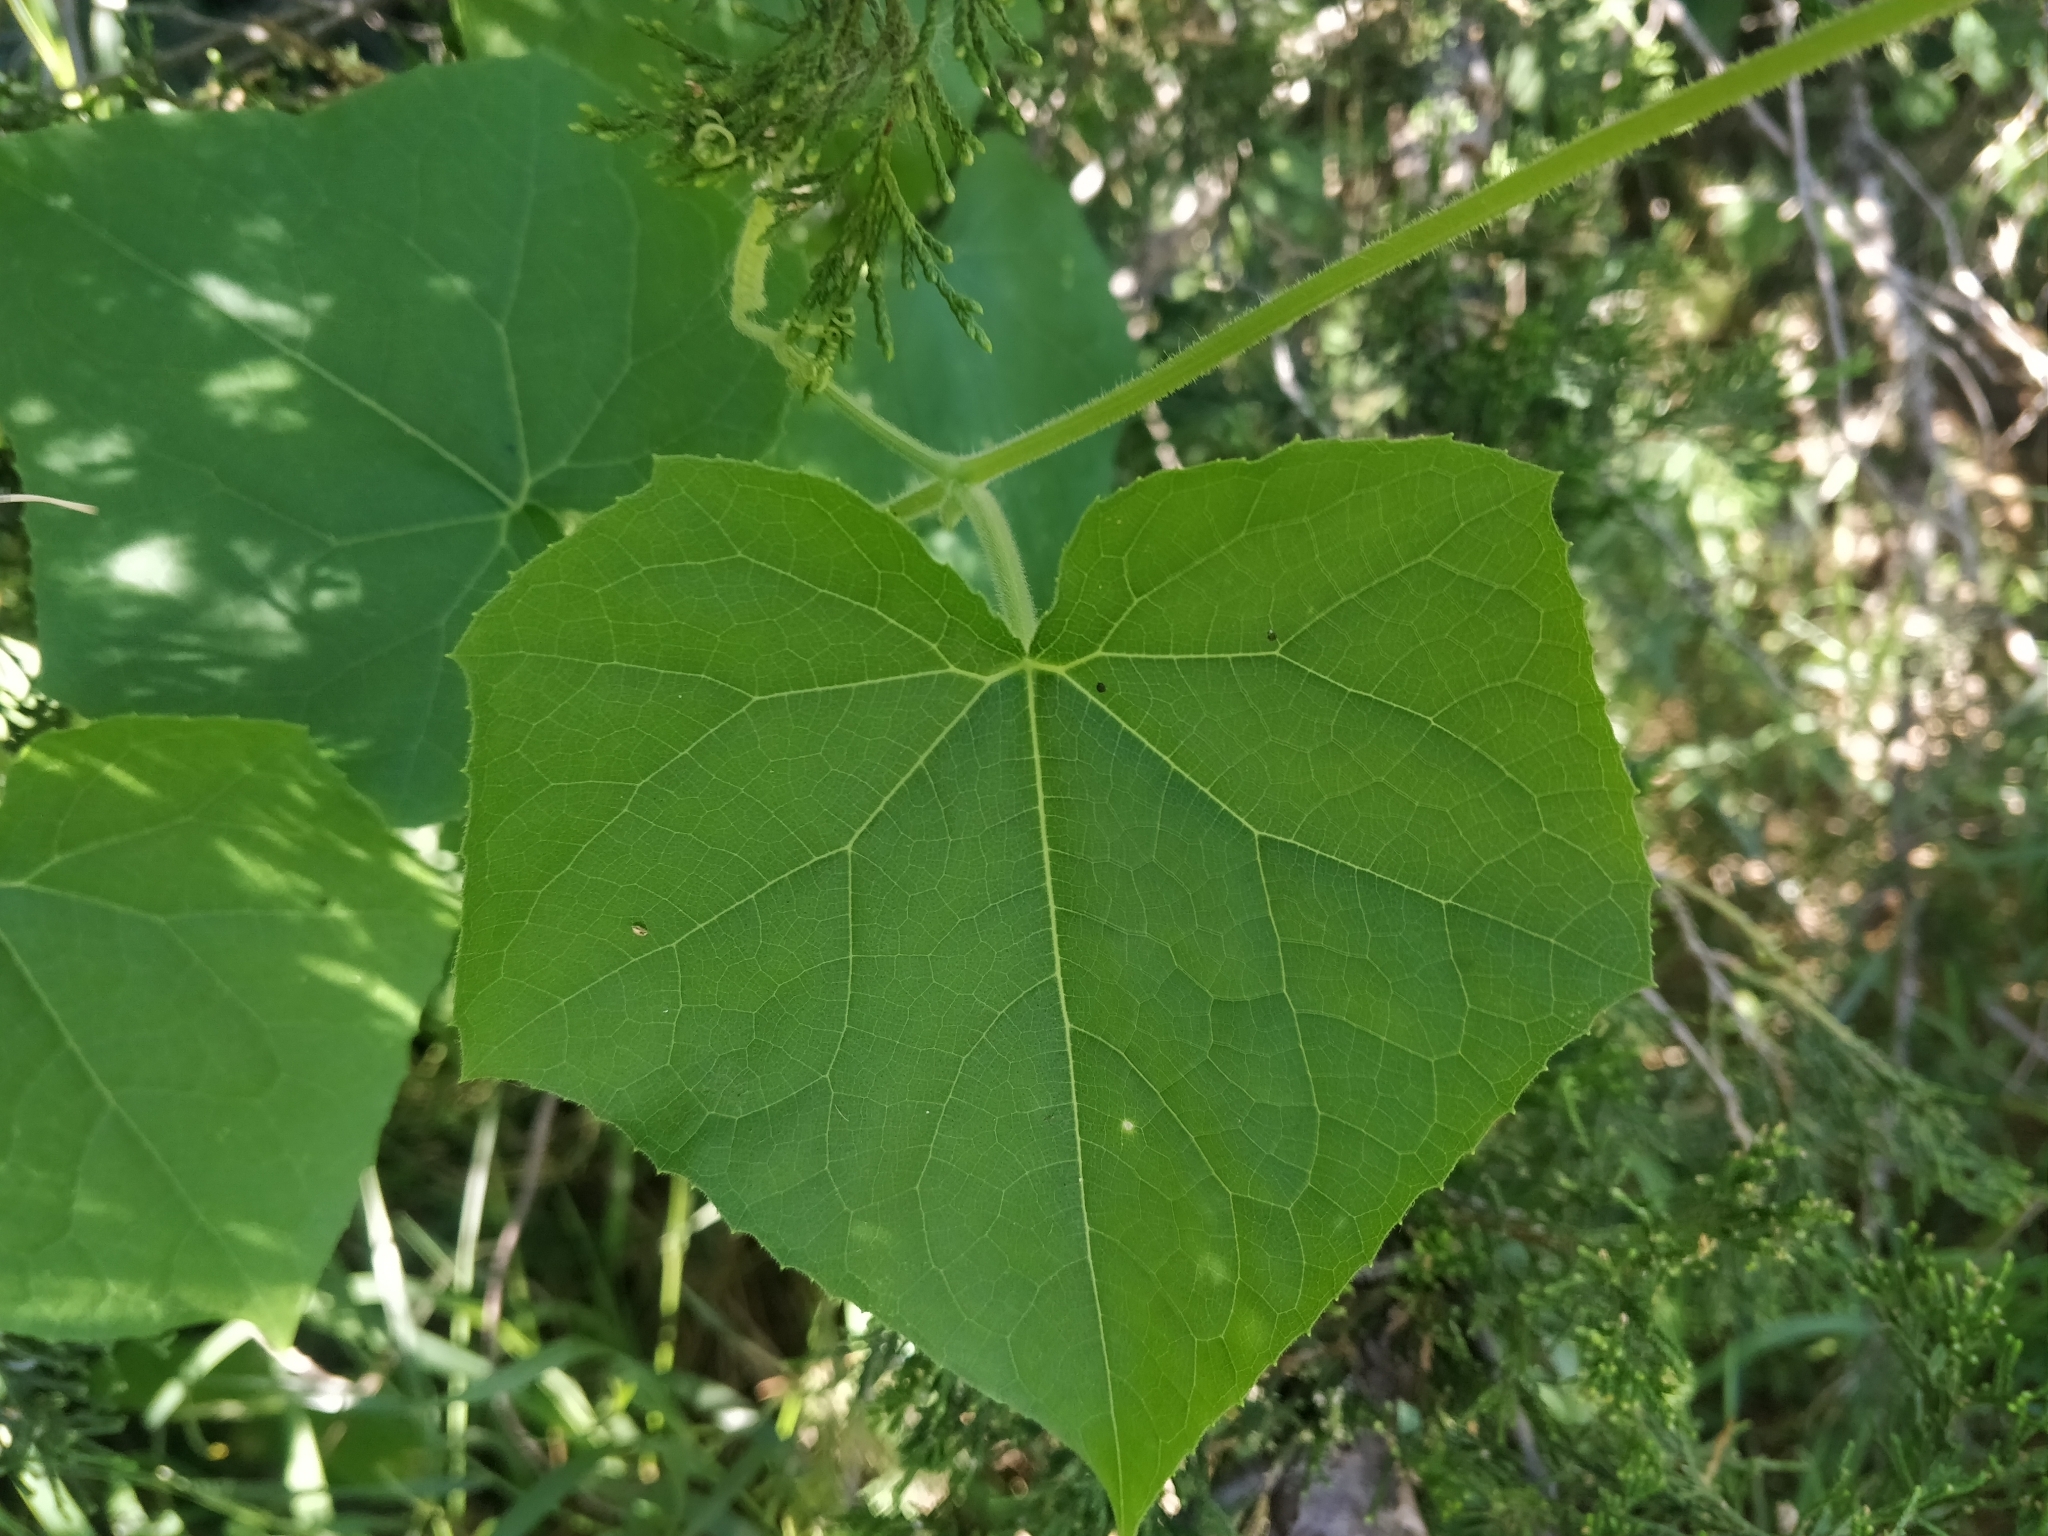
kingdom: Plantae
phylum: Tracheophyta
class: Magnoliopsida
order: Cucurbitales
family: Cucurbitaceae
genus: Sicyos
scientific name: Sicyos angulatus
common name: Angled burr cucumber
